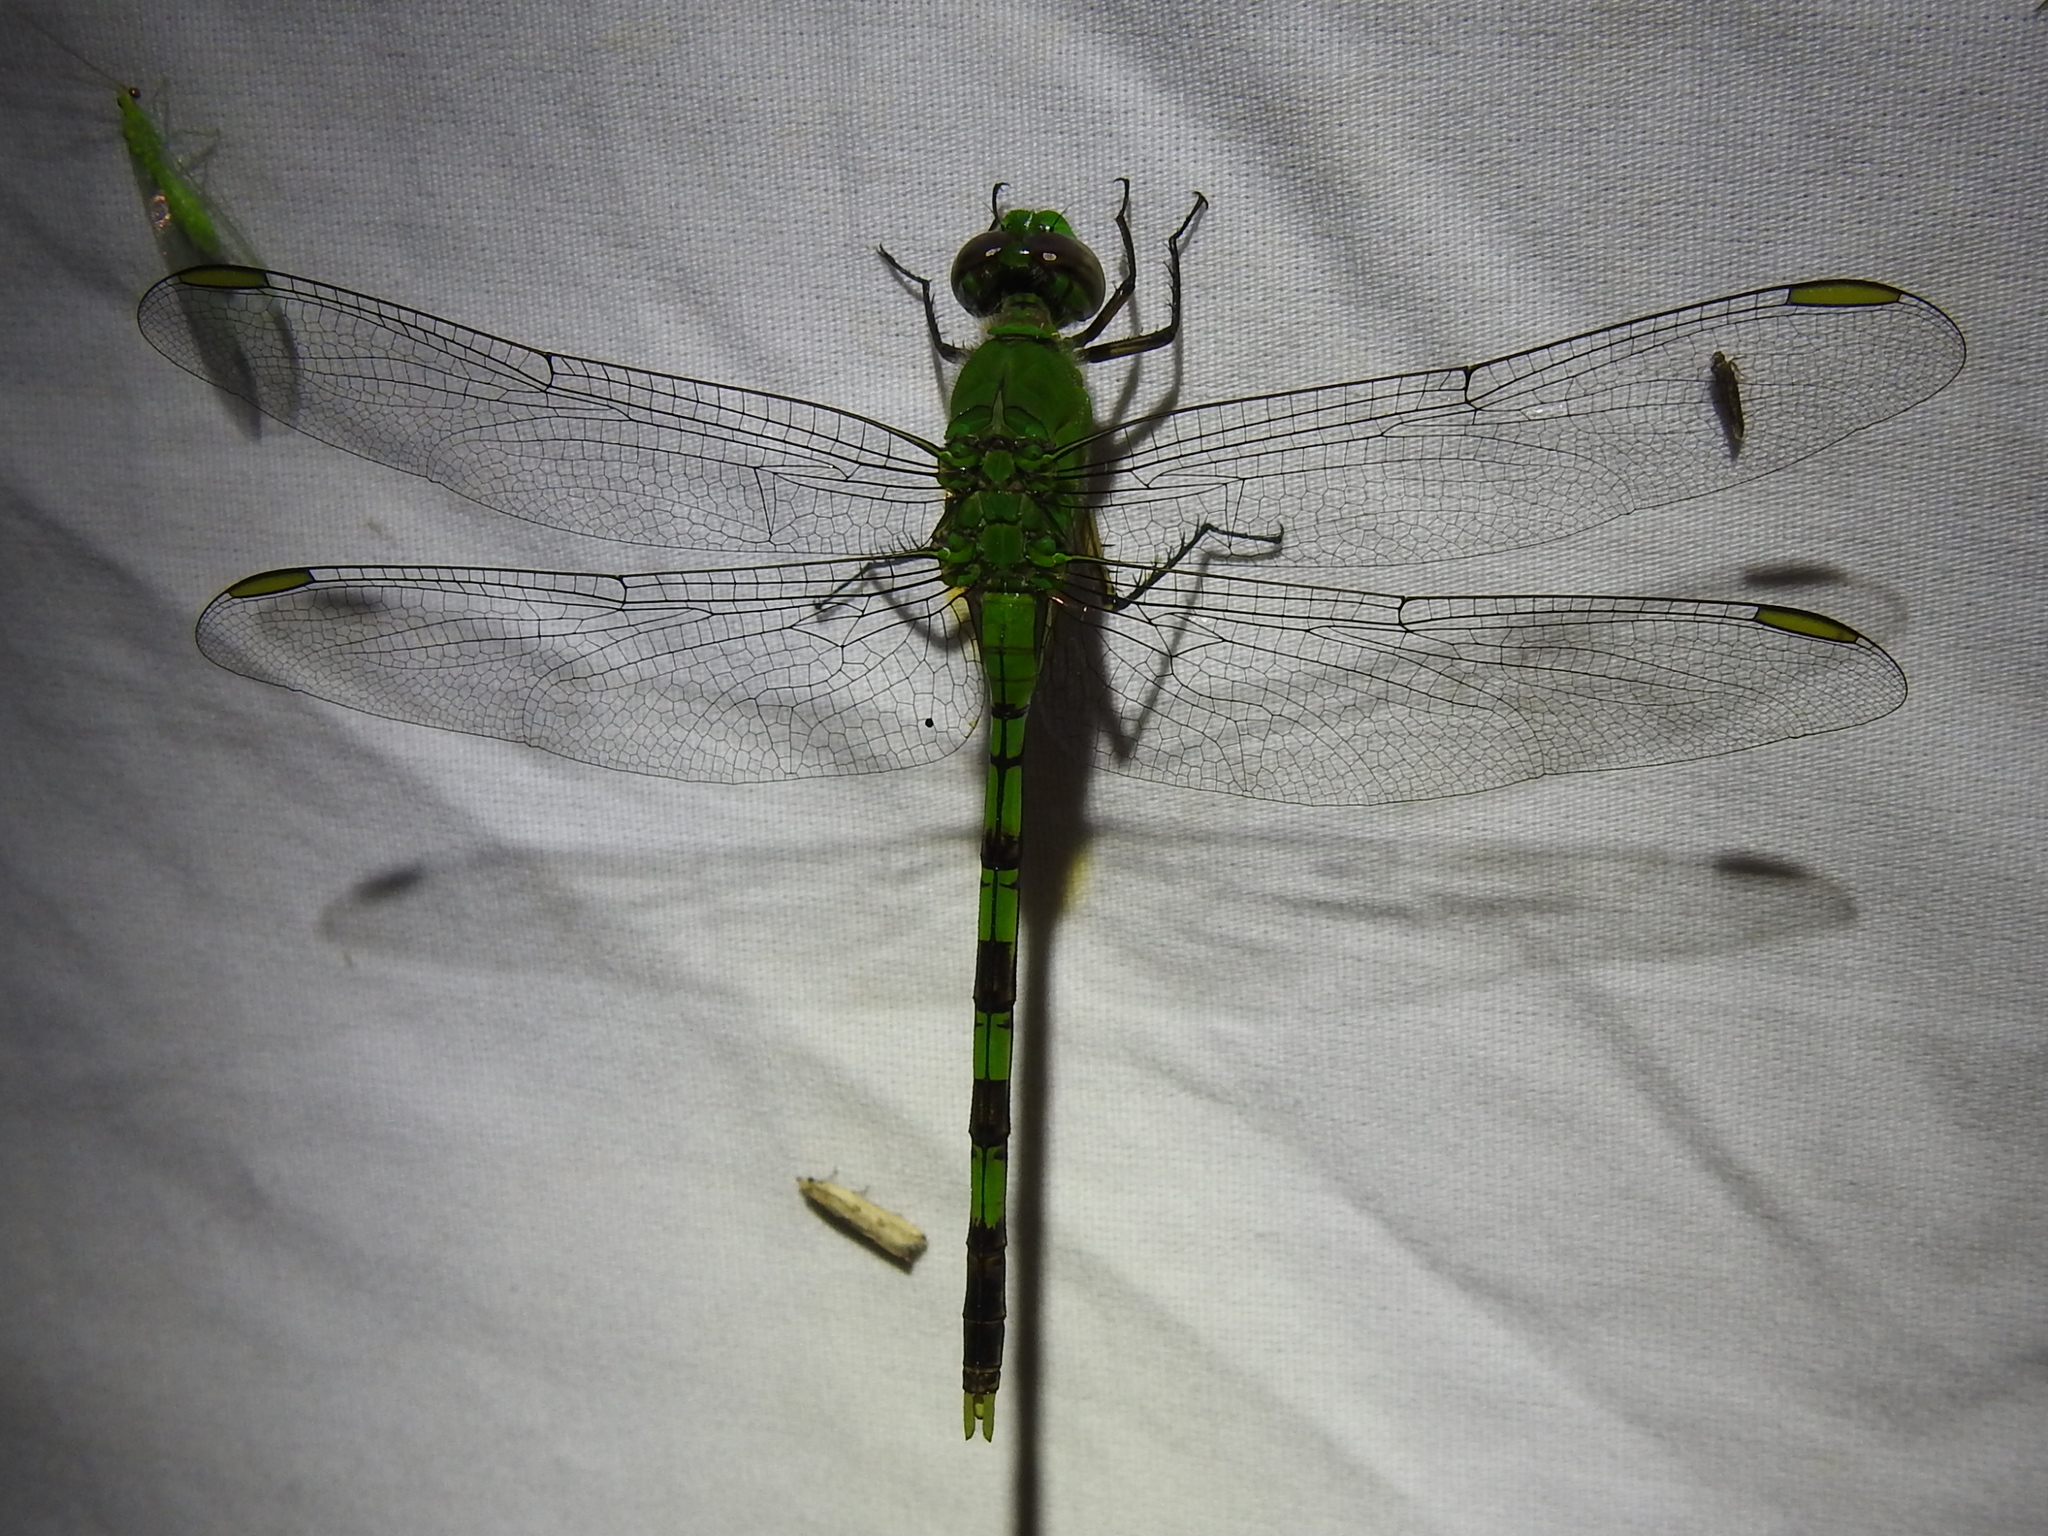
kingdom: Animalia
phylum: Arthropoda
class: Insecta
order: Odonata
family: Libellulidae
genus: Erythemis
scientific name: Erythemis vesiculosa
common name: Great pondhawk
